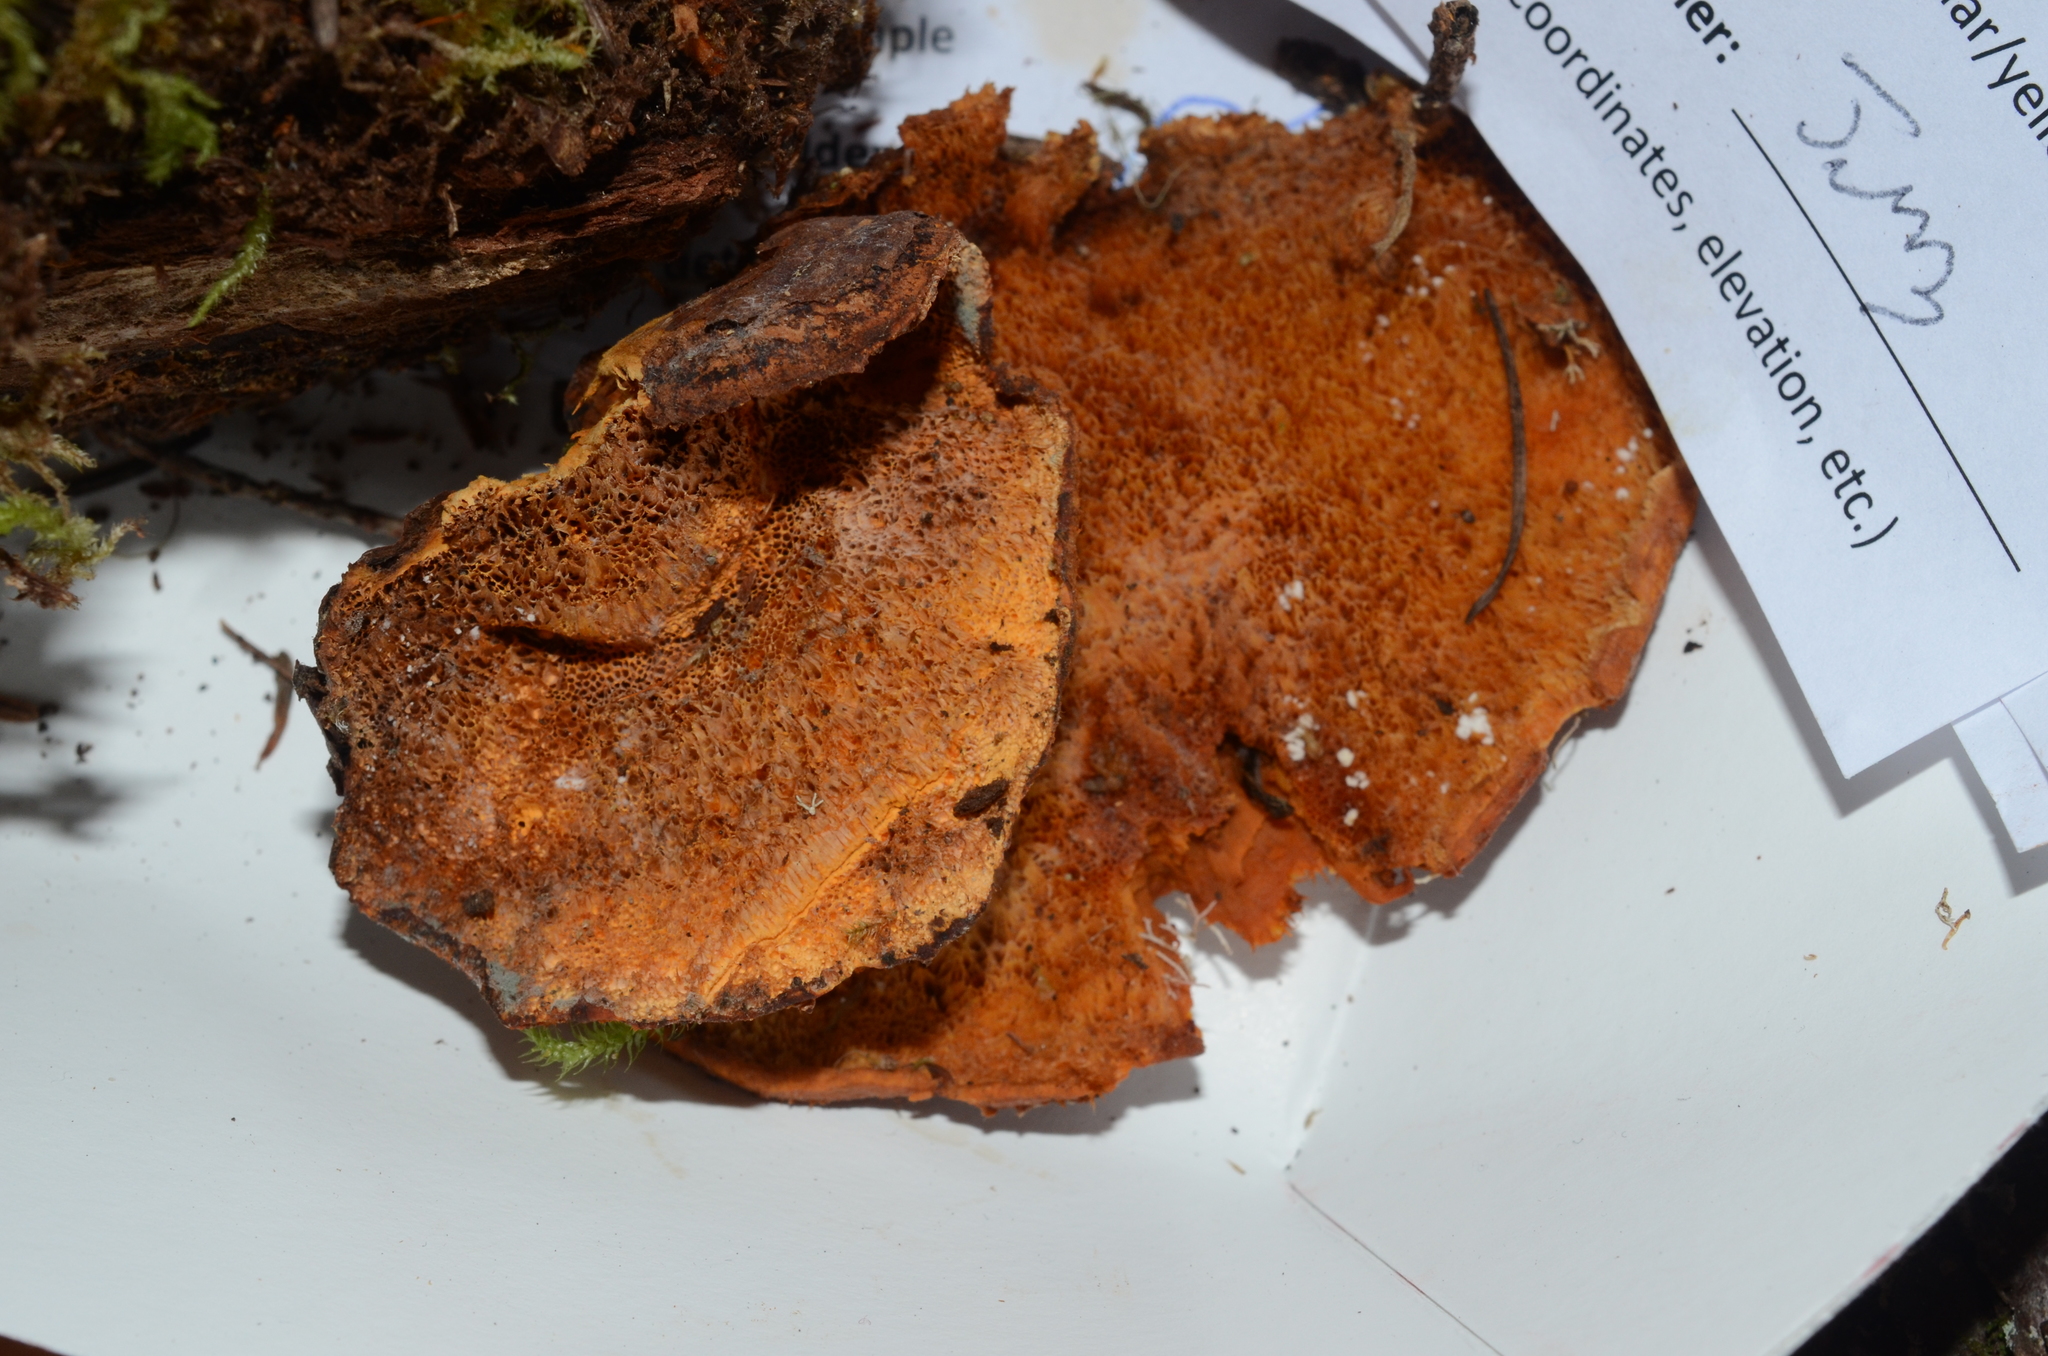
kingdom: Fungi
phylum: Basidiomycota
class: Agaricomycetes
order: Polyporales
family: Pycnoporellaceae
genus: Pycnoporellus
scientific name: Pycnoporellus fulgens
